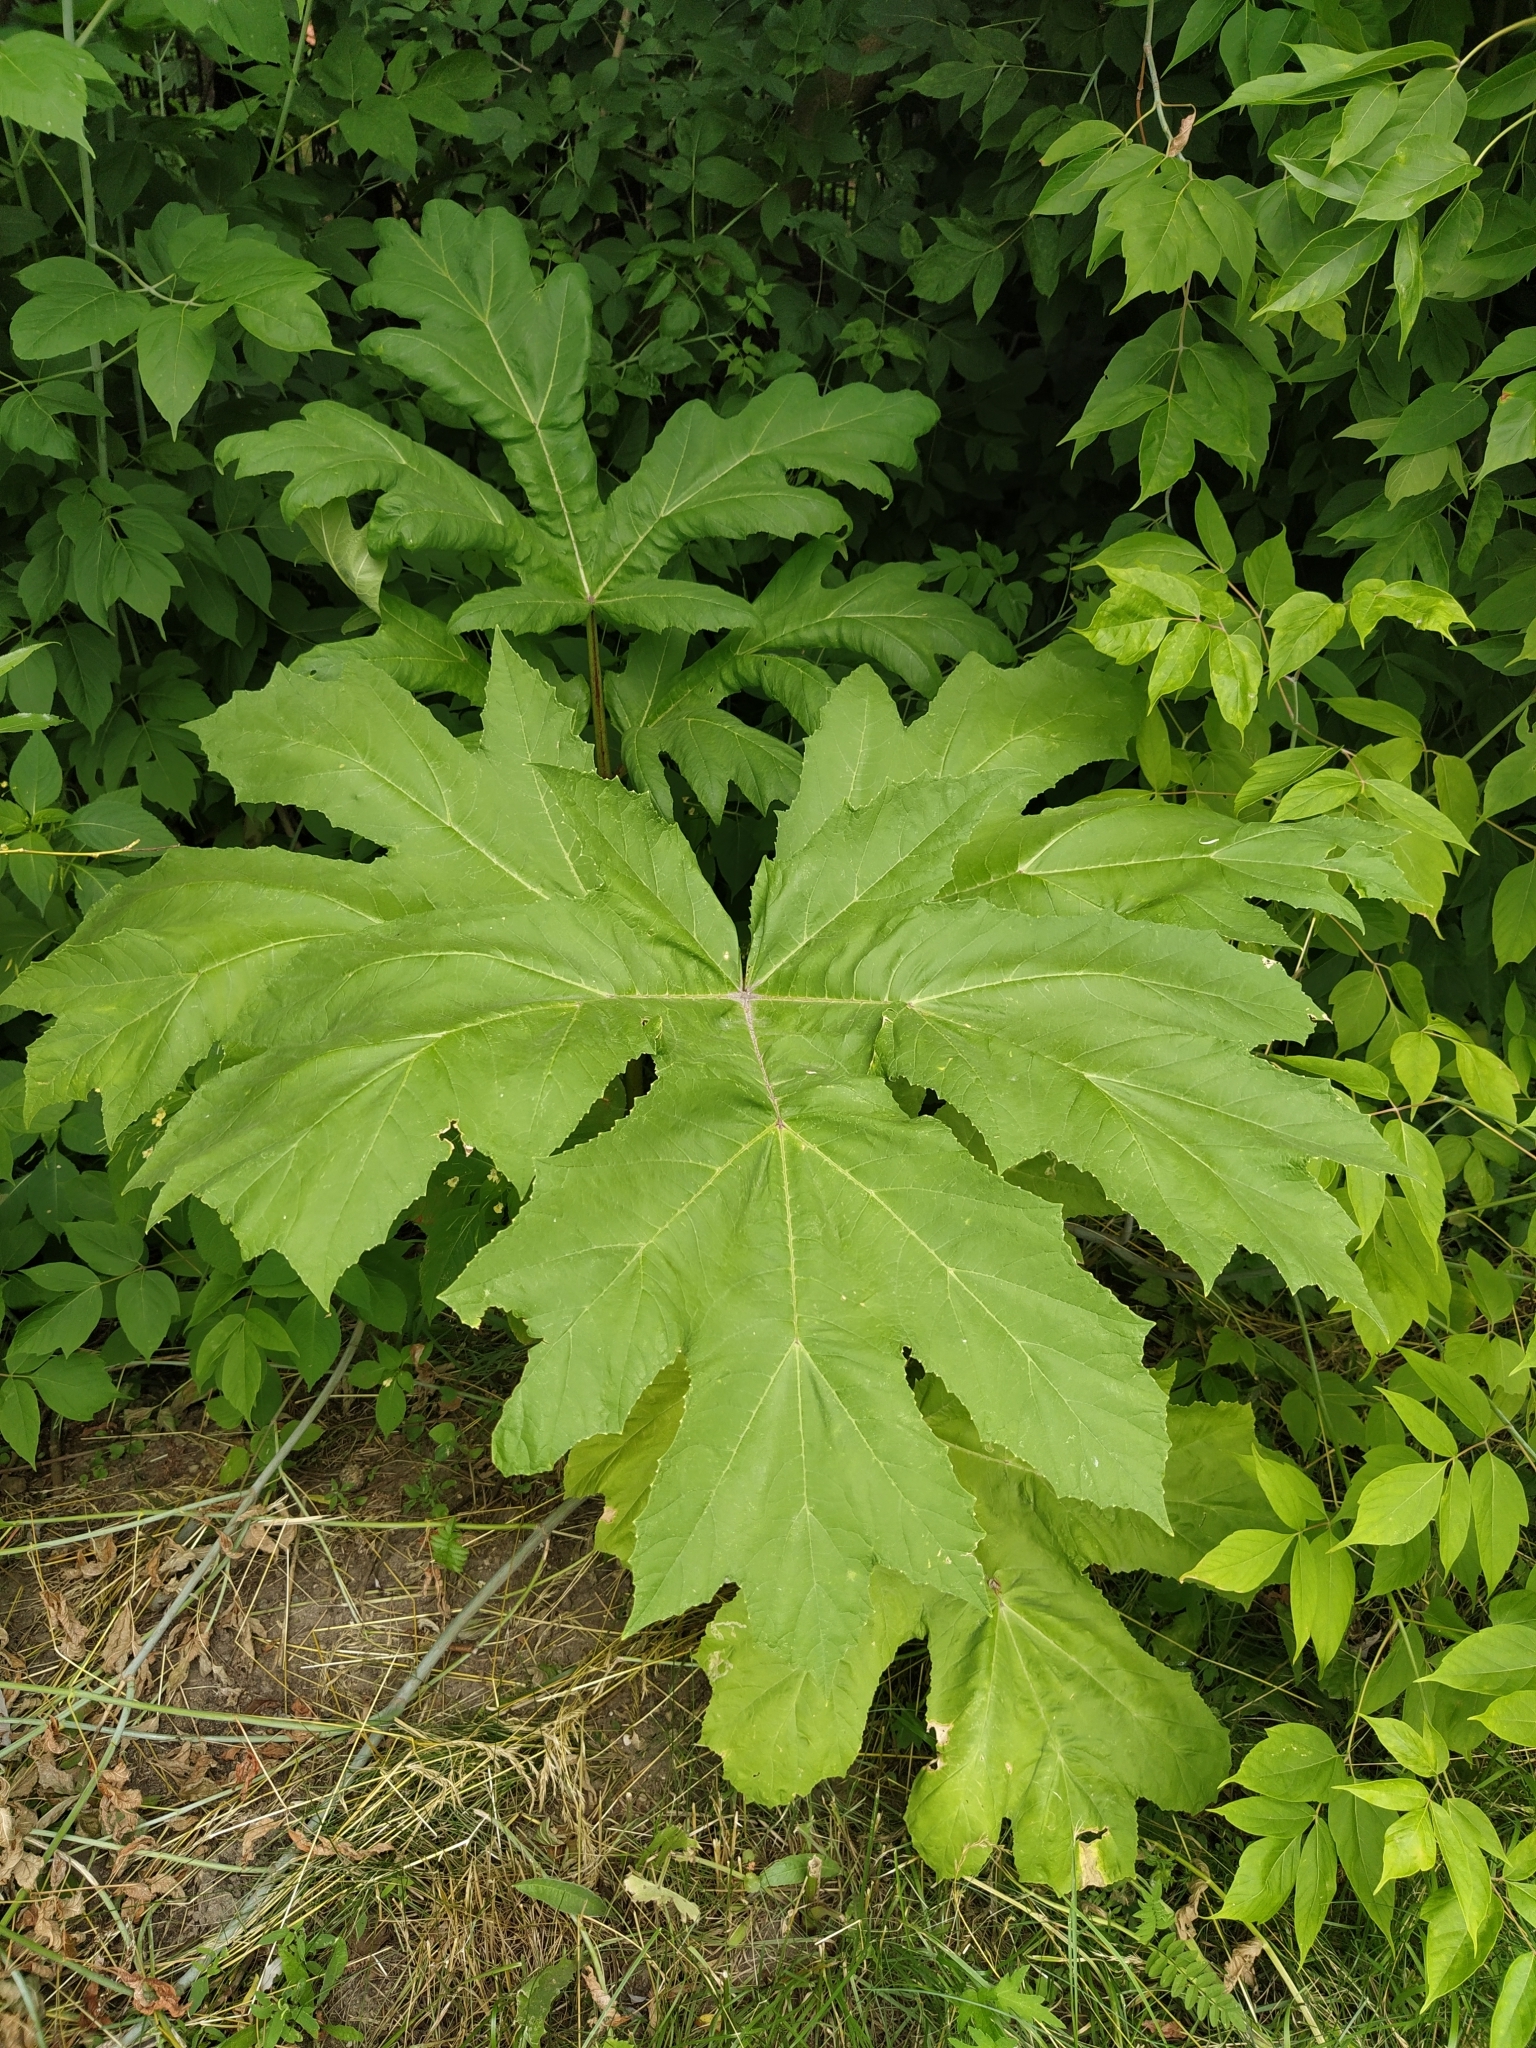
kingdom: Plantae
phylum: Tracheophyta
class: Magnoliopsida
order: Apiales
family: Apiaceae
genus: Heracleum
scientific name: Heracleum sosnowskyi
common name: Sosnowsky's hogweed
